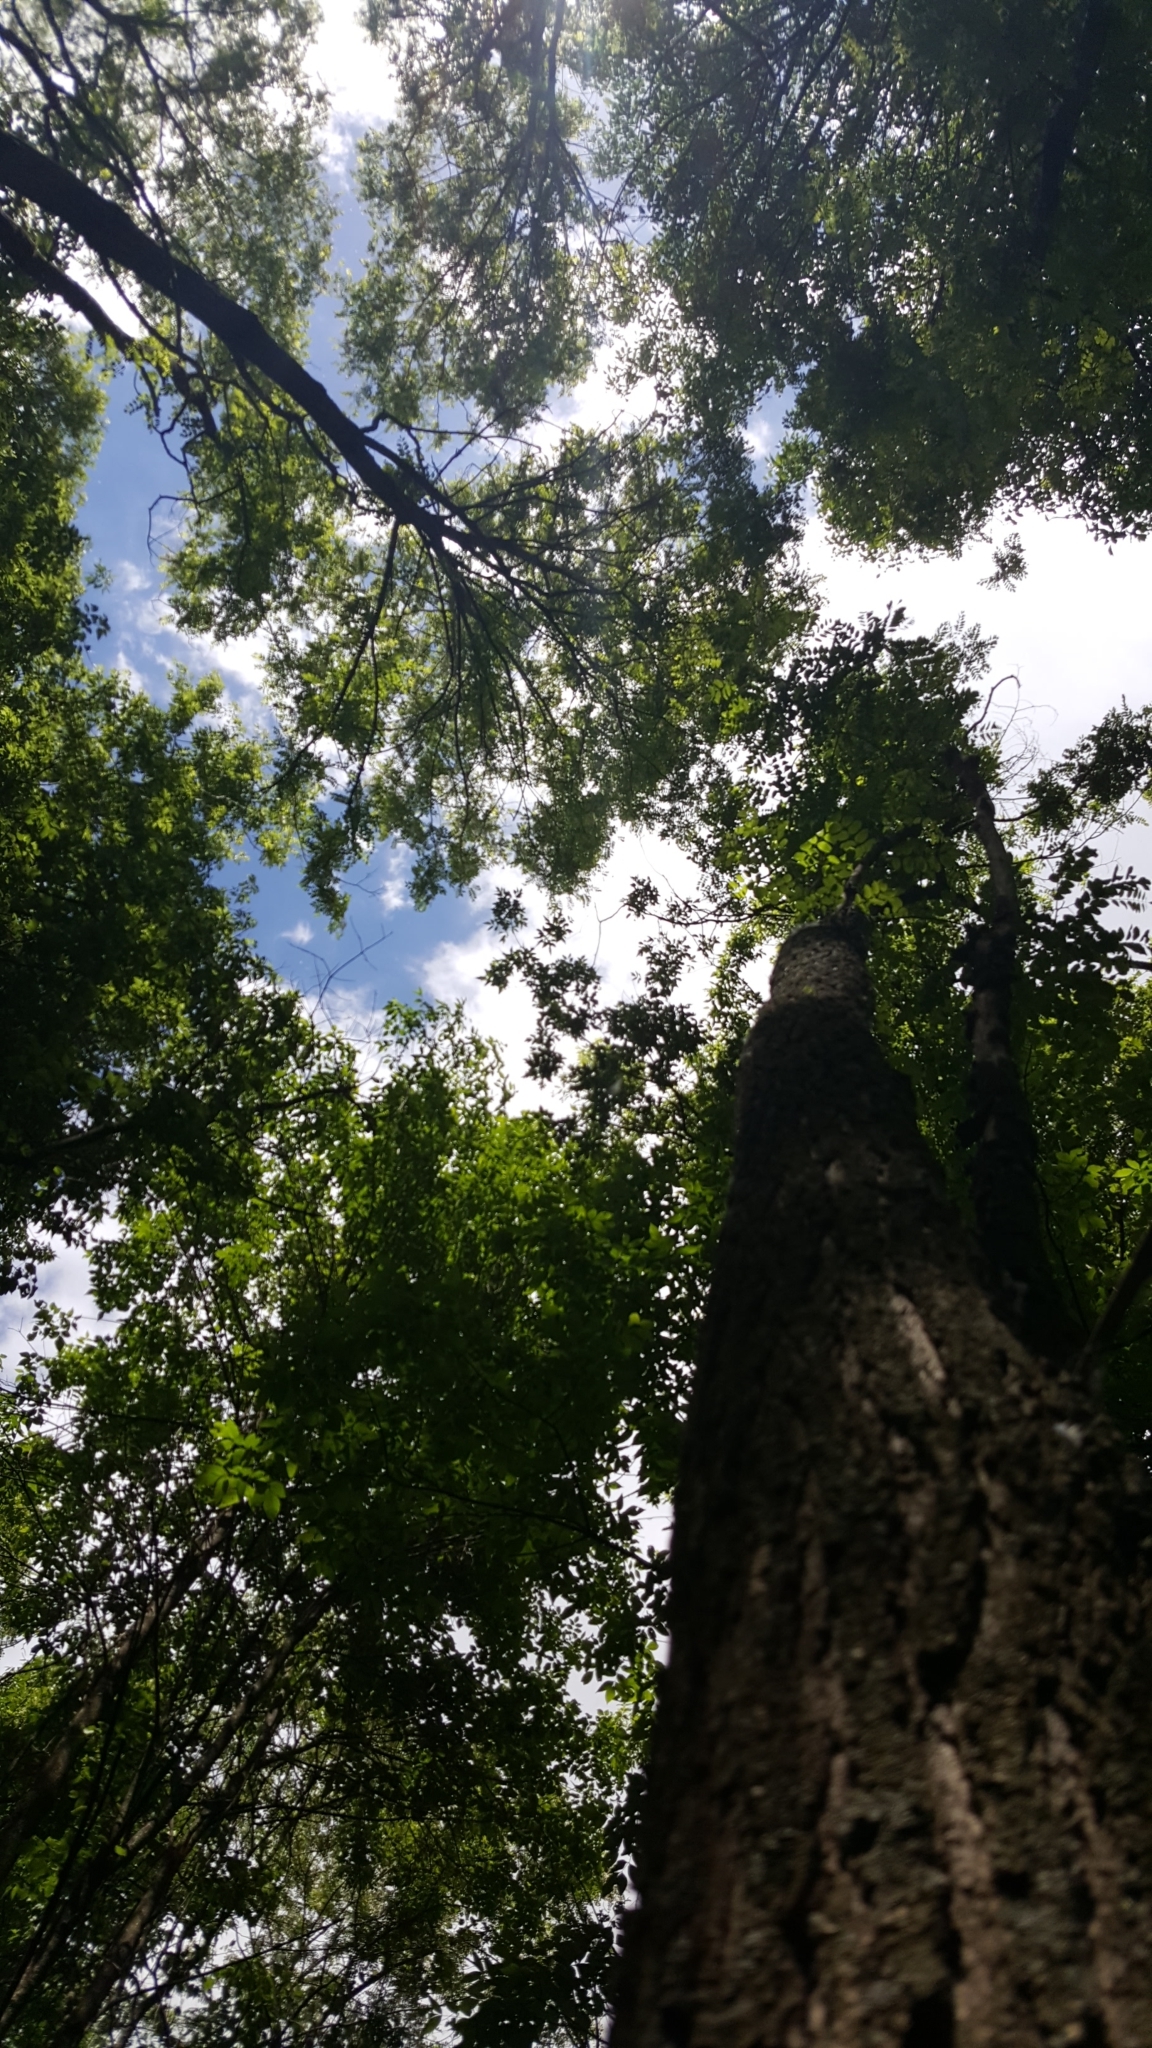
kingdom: Plantae
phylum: Tracheophyta
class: Magnoliopsida
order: Fabales
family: Fabaceae
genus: Robinia
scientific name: Robinia pseudoacacia
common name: Black locust
